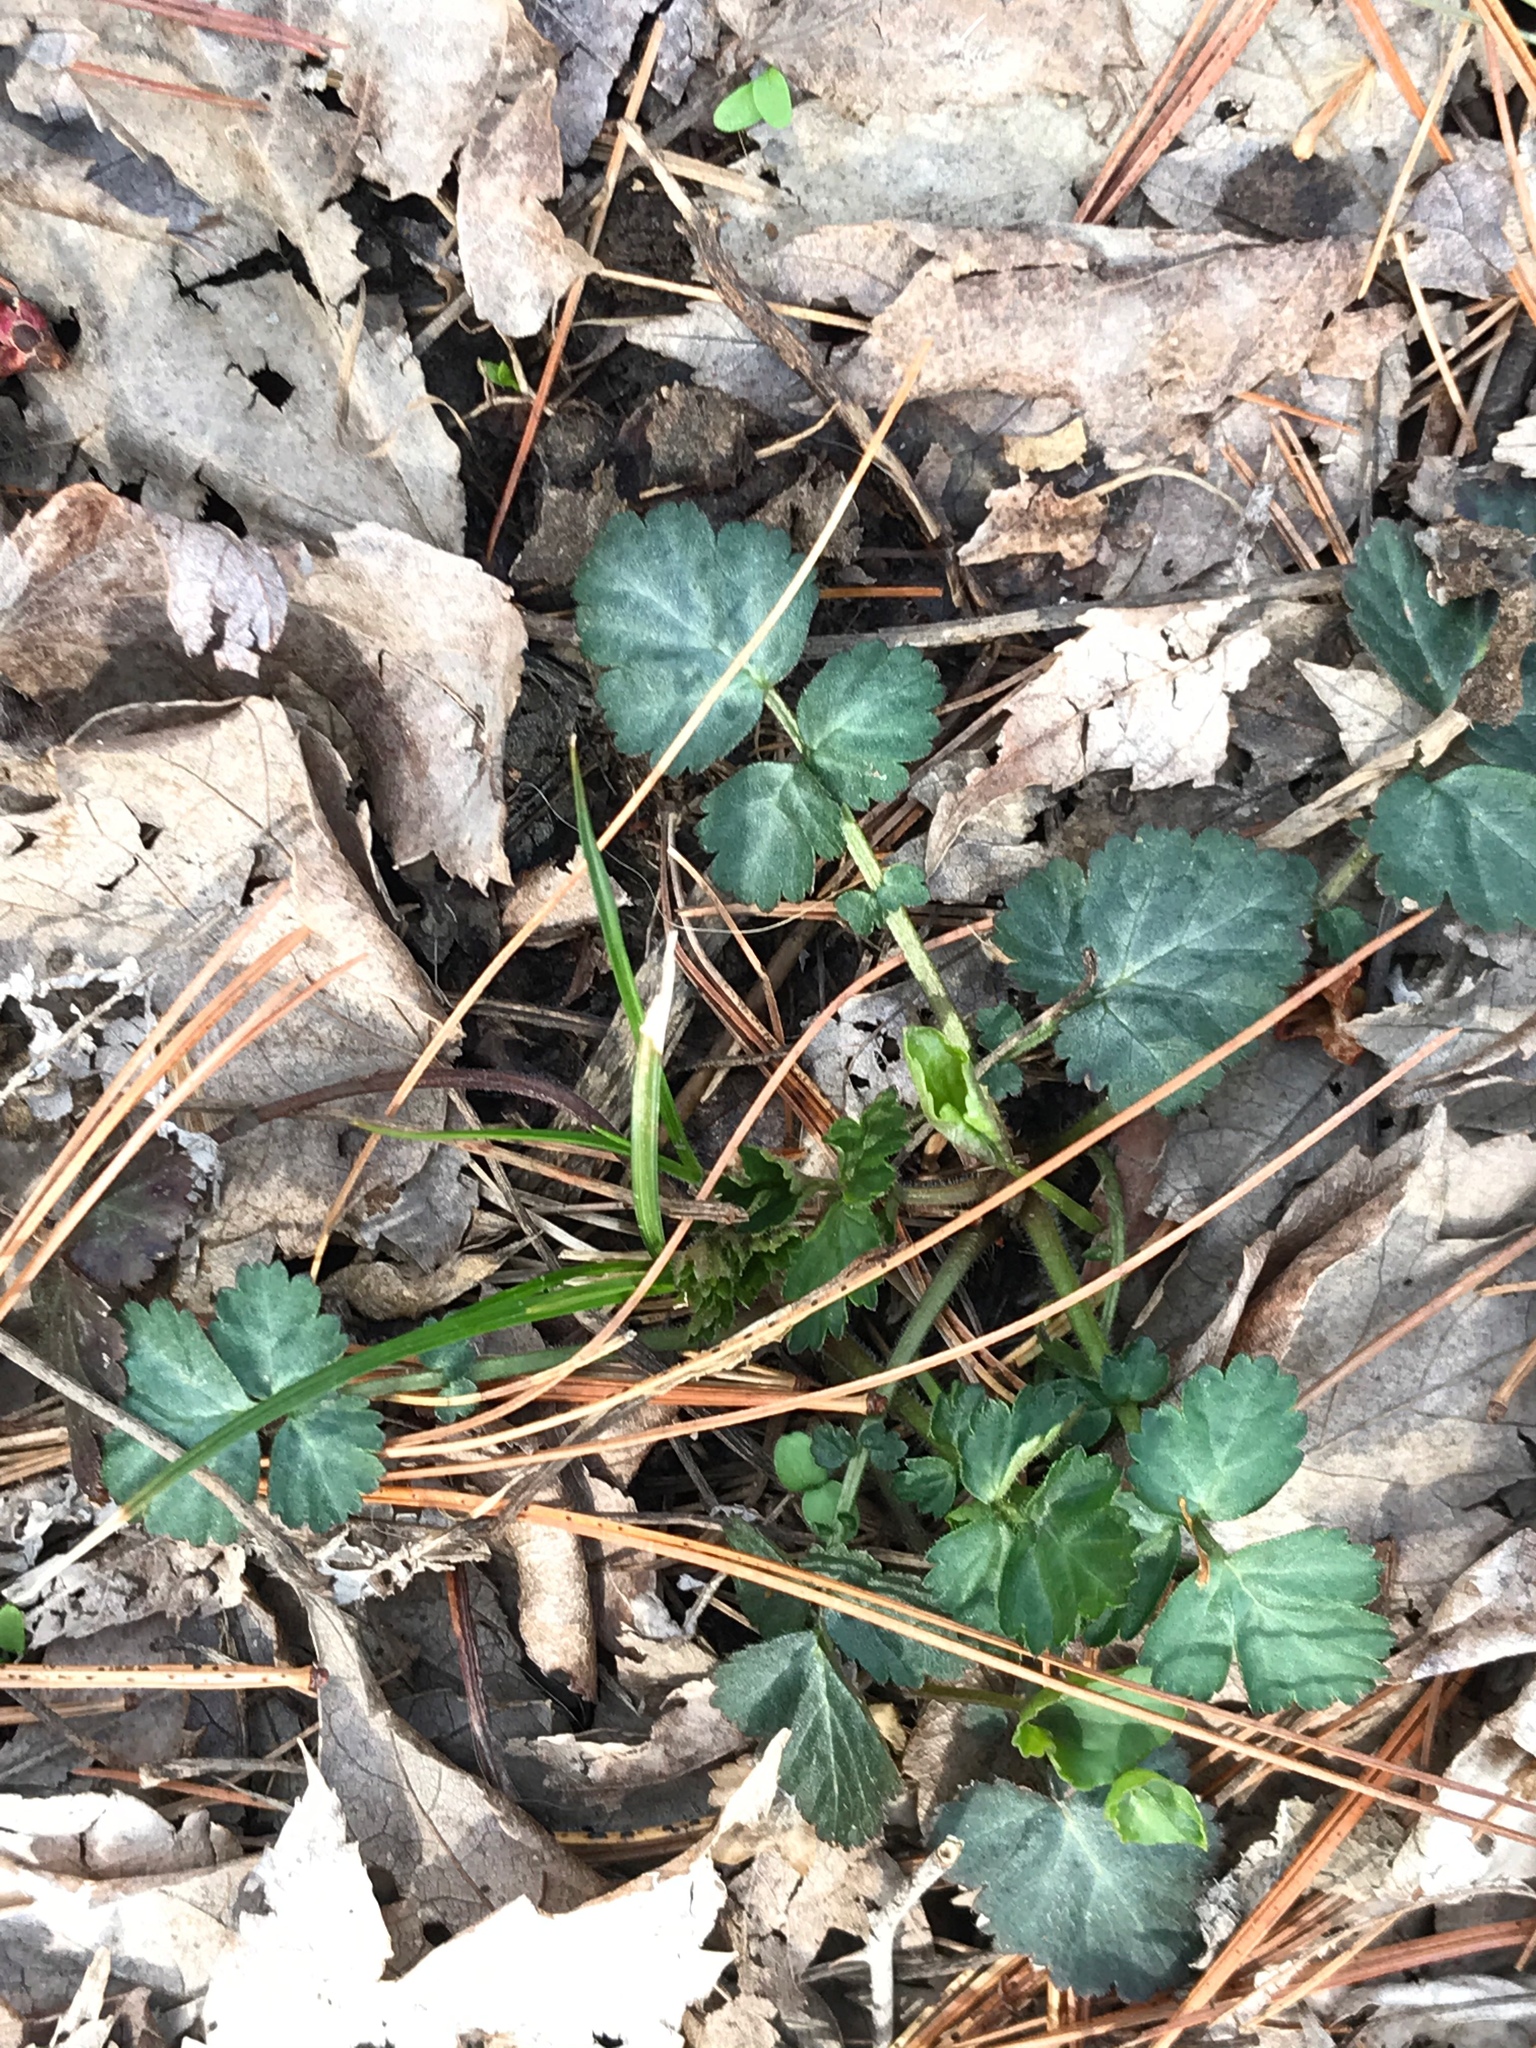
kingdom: Plantae
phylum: Tracheophyta
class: Magnoliopsida
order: Rosales
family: Rosaceae
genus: Geum
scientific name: Geum canadense
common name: White avens
